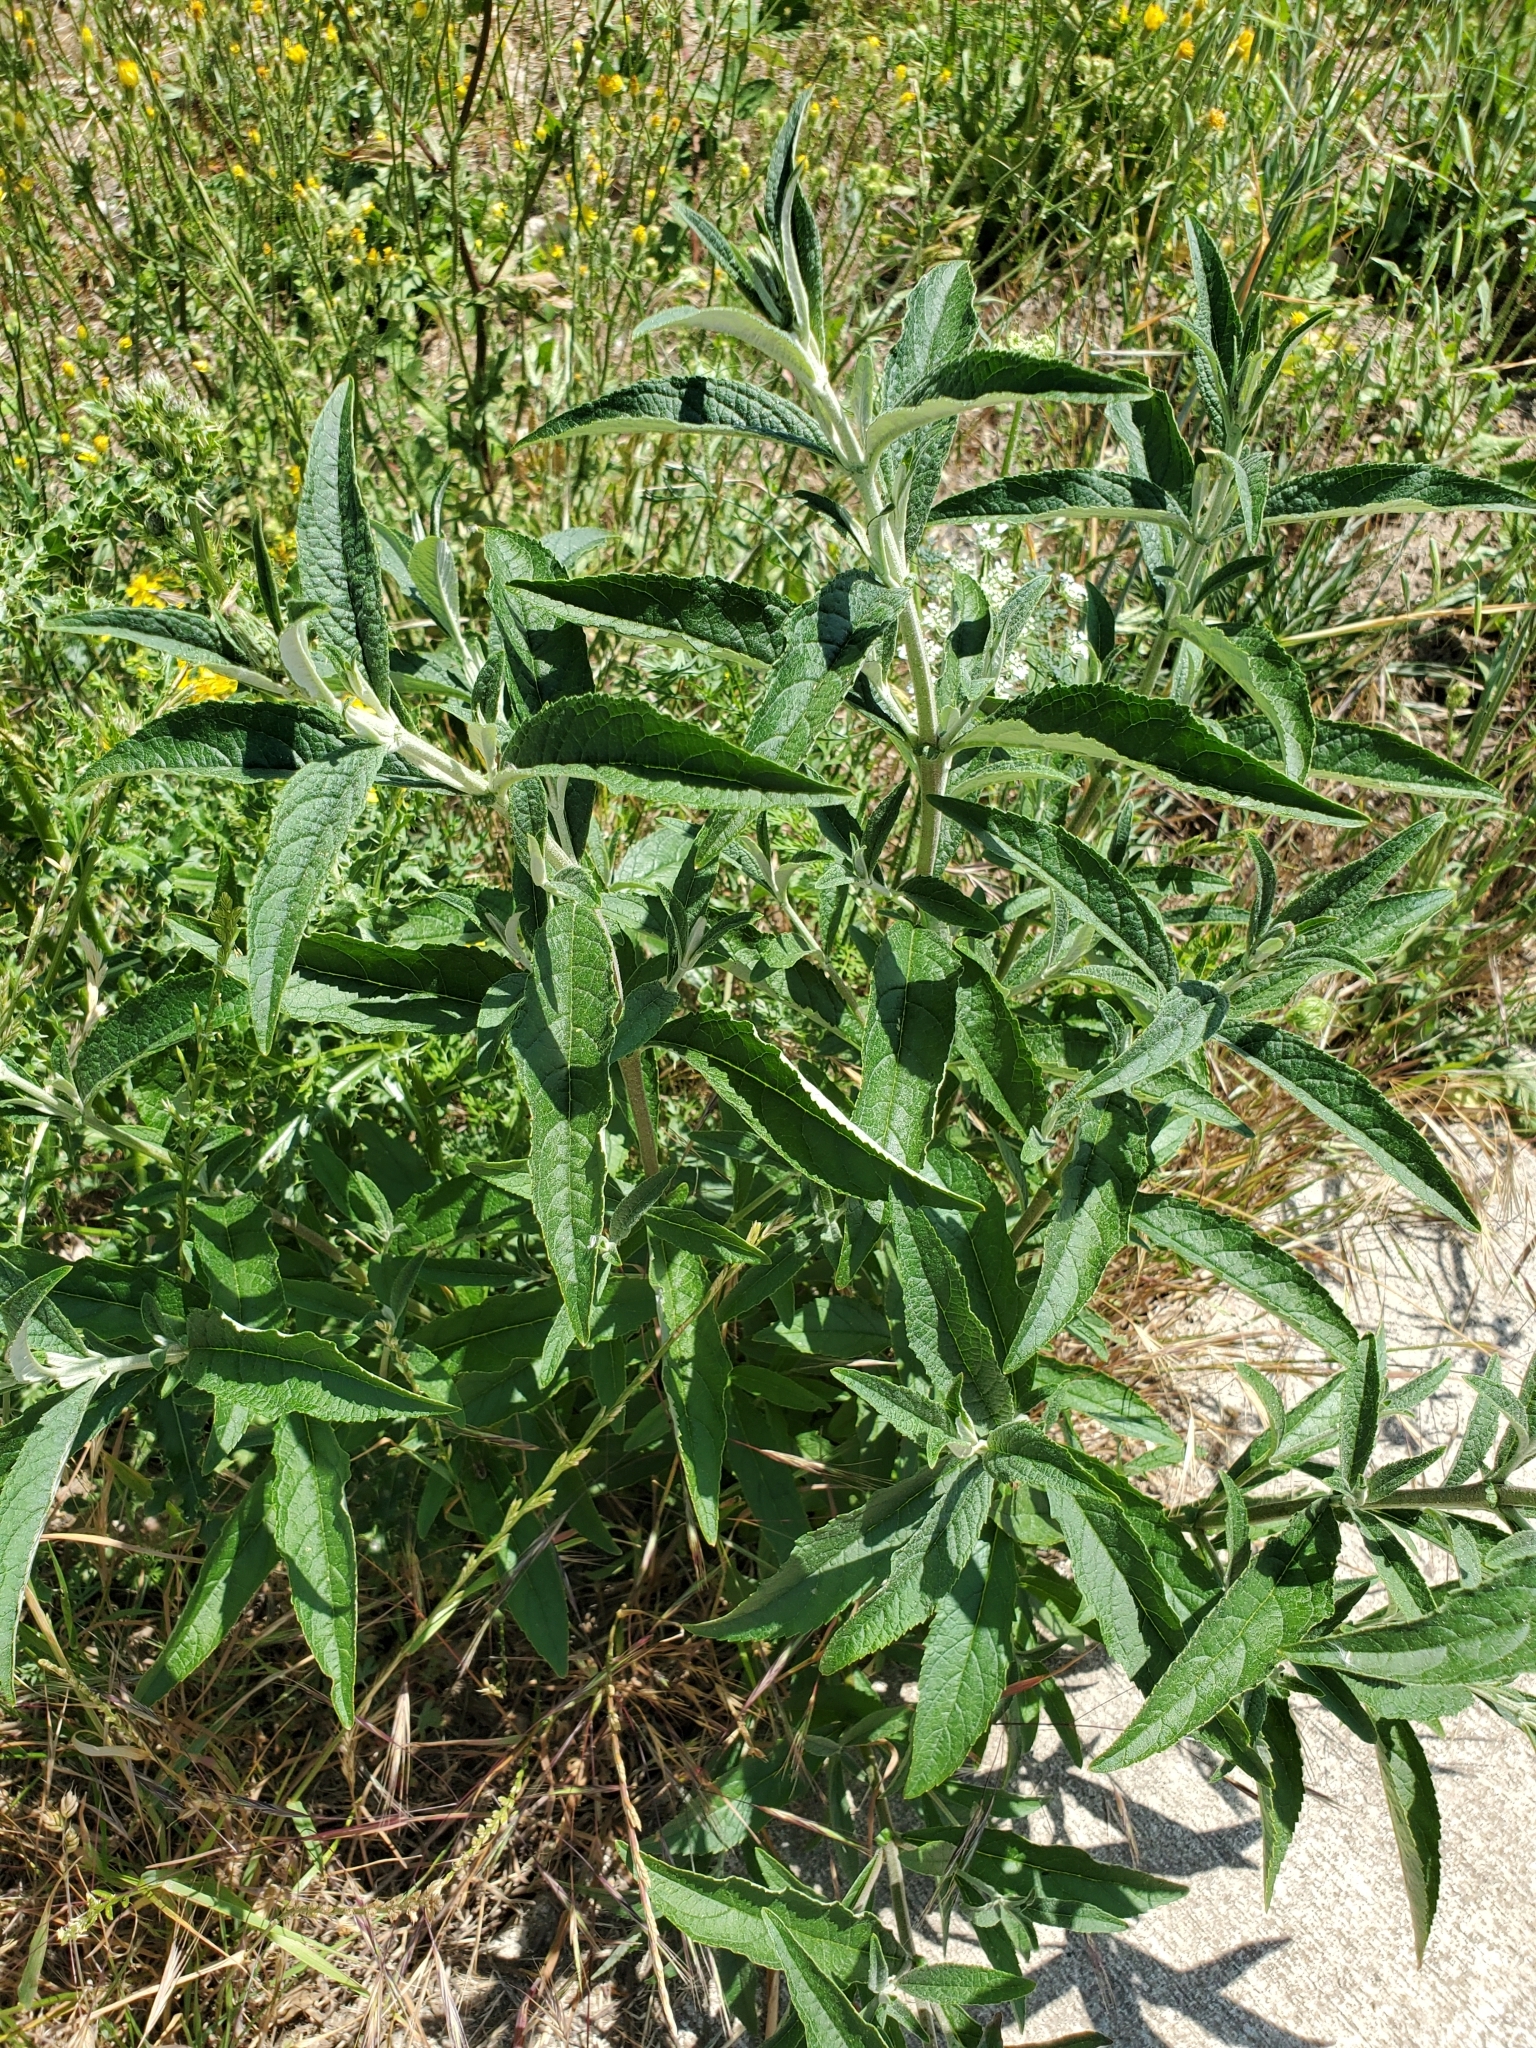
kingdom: Plantae
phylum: Tracheophyta
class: Magnoliopsida
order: Lamiales
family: Scrophulariaceae
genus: Buddleja
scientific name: Buddleja davidii
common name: Butterfly-bush
